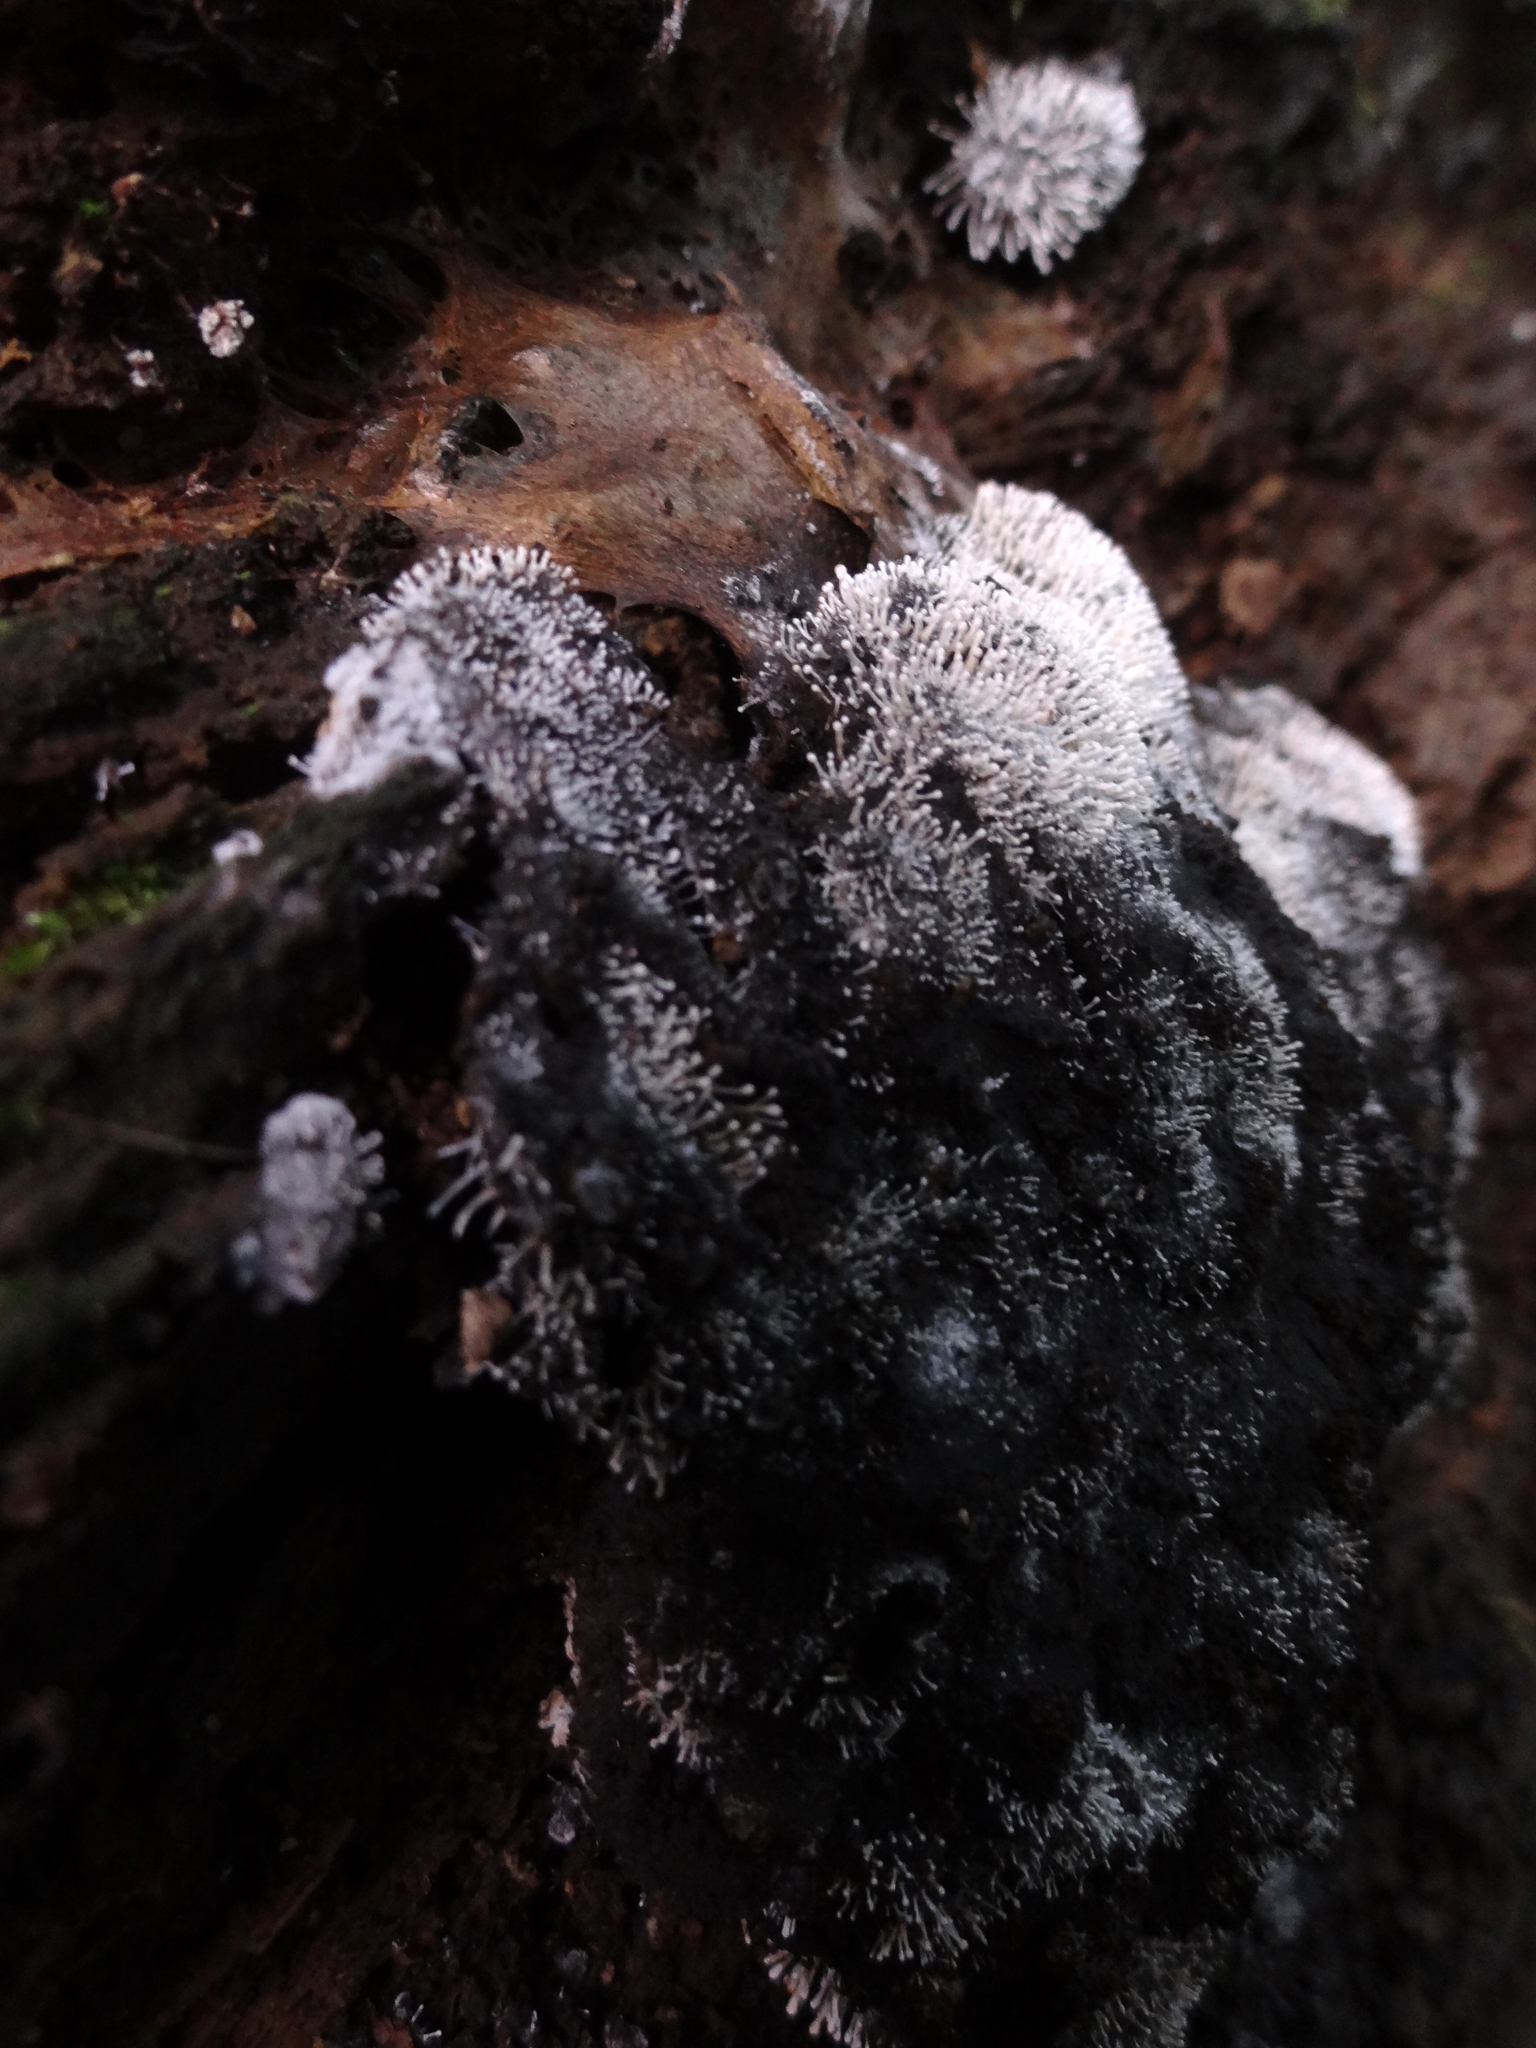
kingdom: Fungi
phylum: Ascomycota
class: Sordariomycetes
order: Hypocreales
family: Ophiocordycipitaceae
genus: Polycephalomyces
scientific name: Polycephalomyces tomentosus
